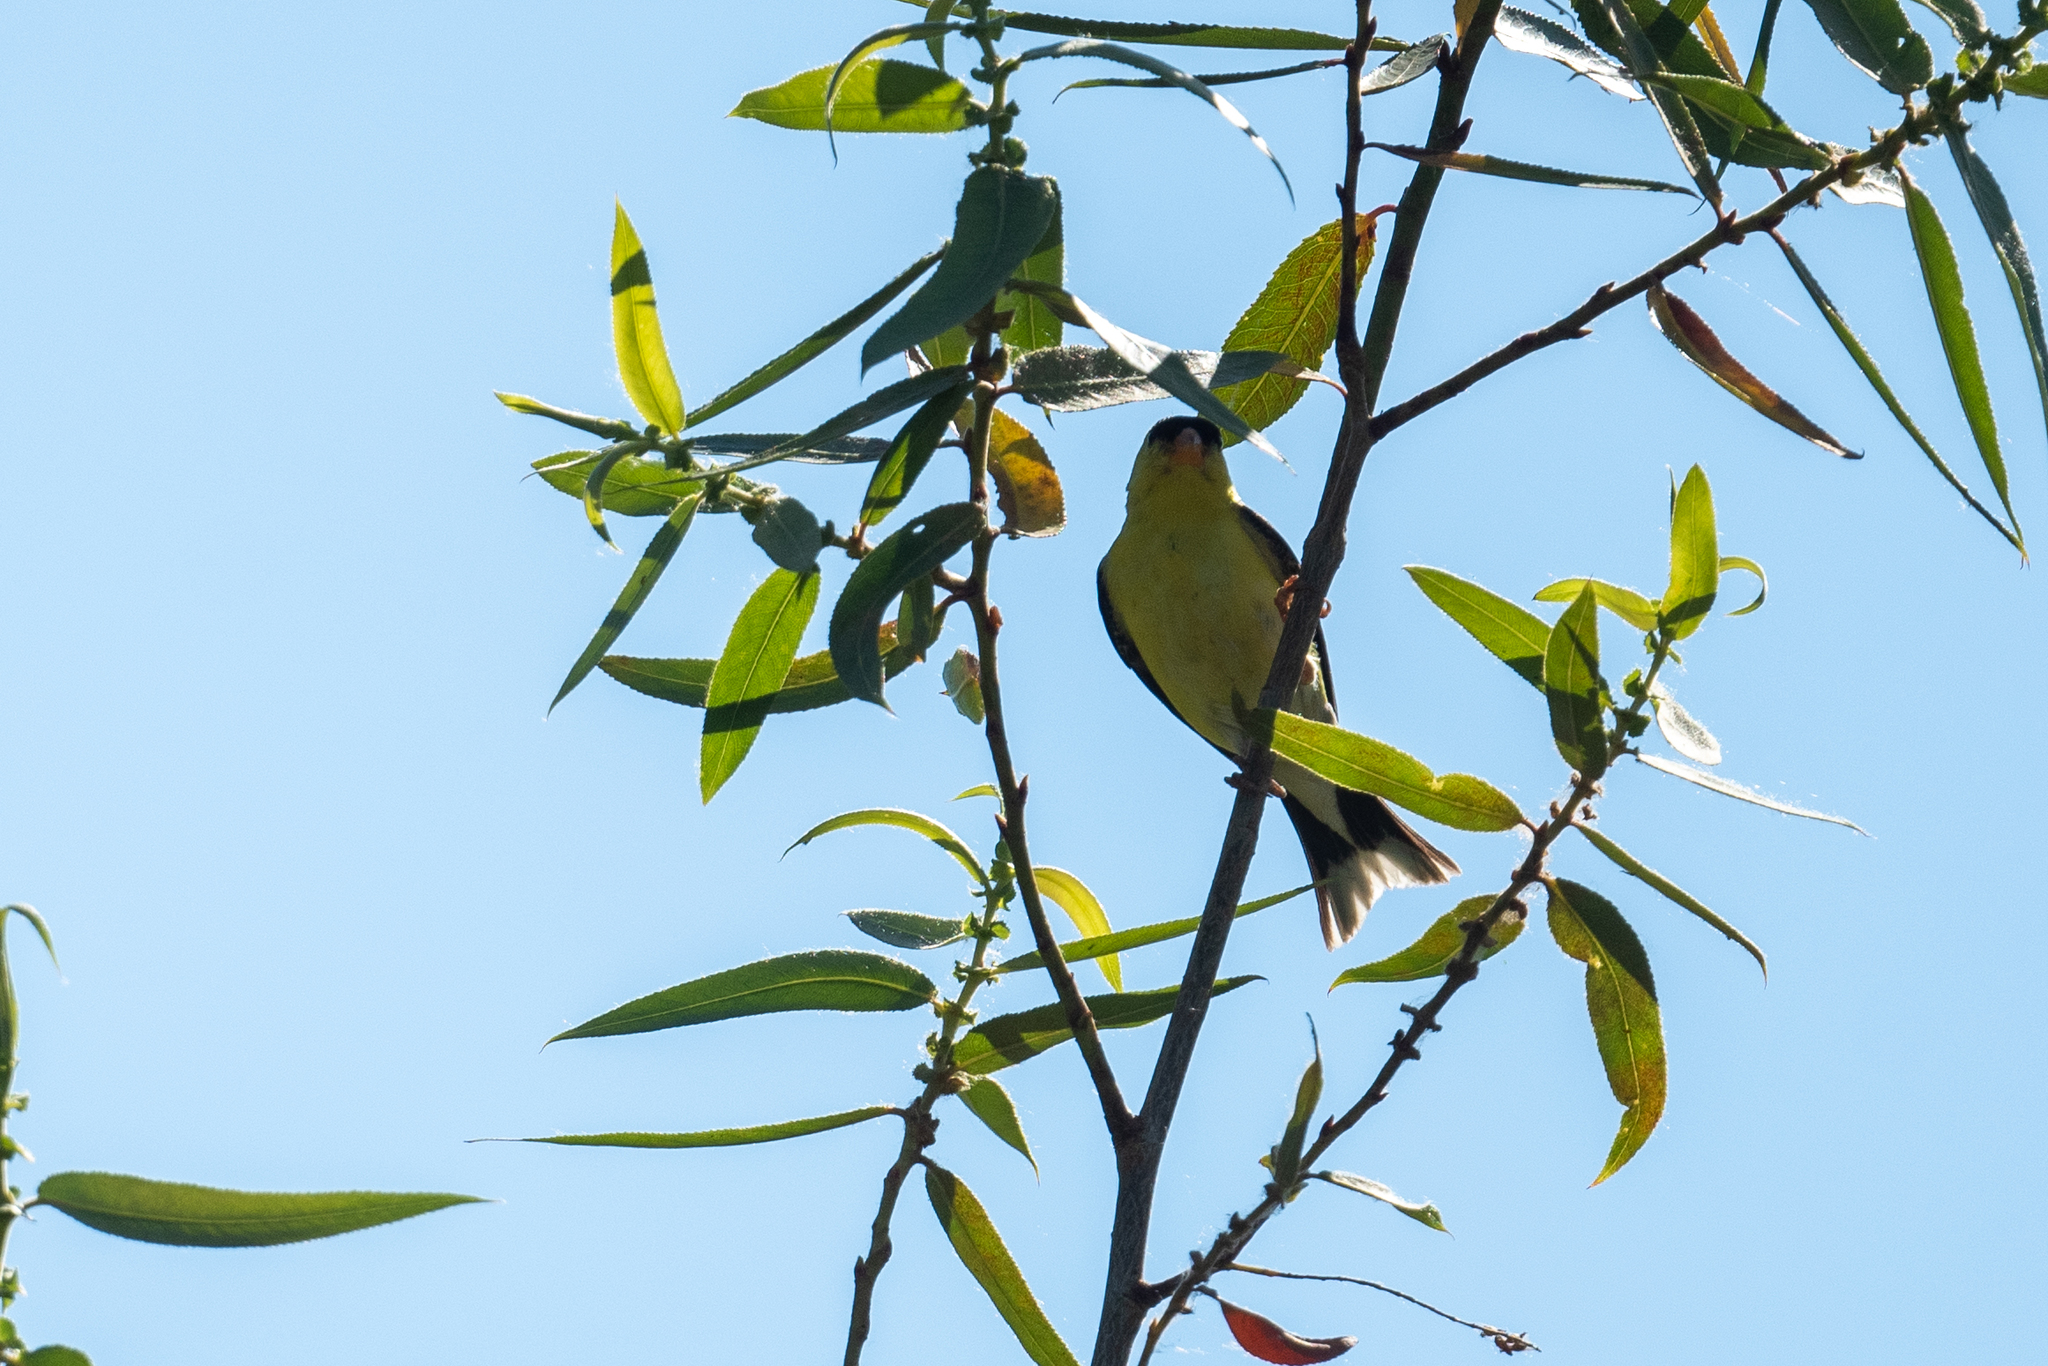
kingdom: Animalia
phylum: Chordata
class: Aves
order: Passeriformes
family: Fringillidae
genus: Spinus
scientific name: Spinus tristis
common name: American goldfinch
